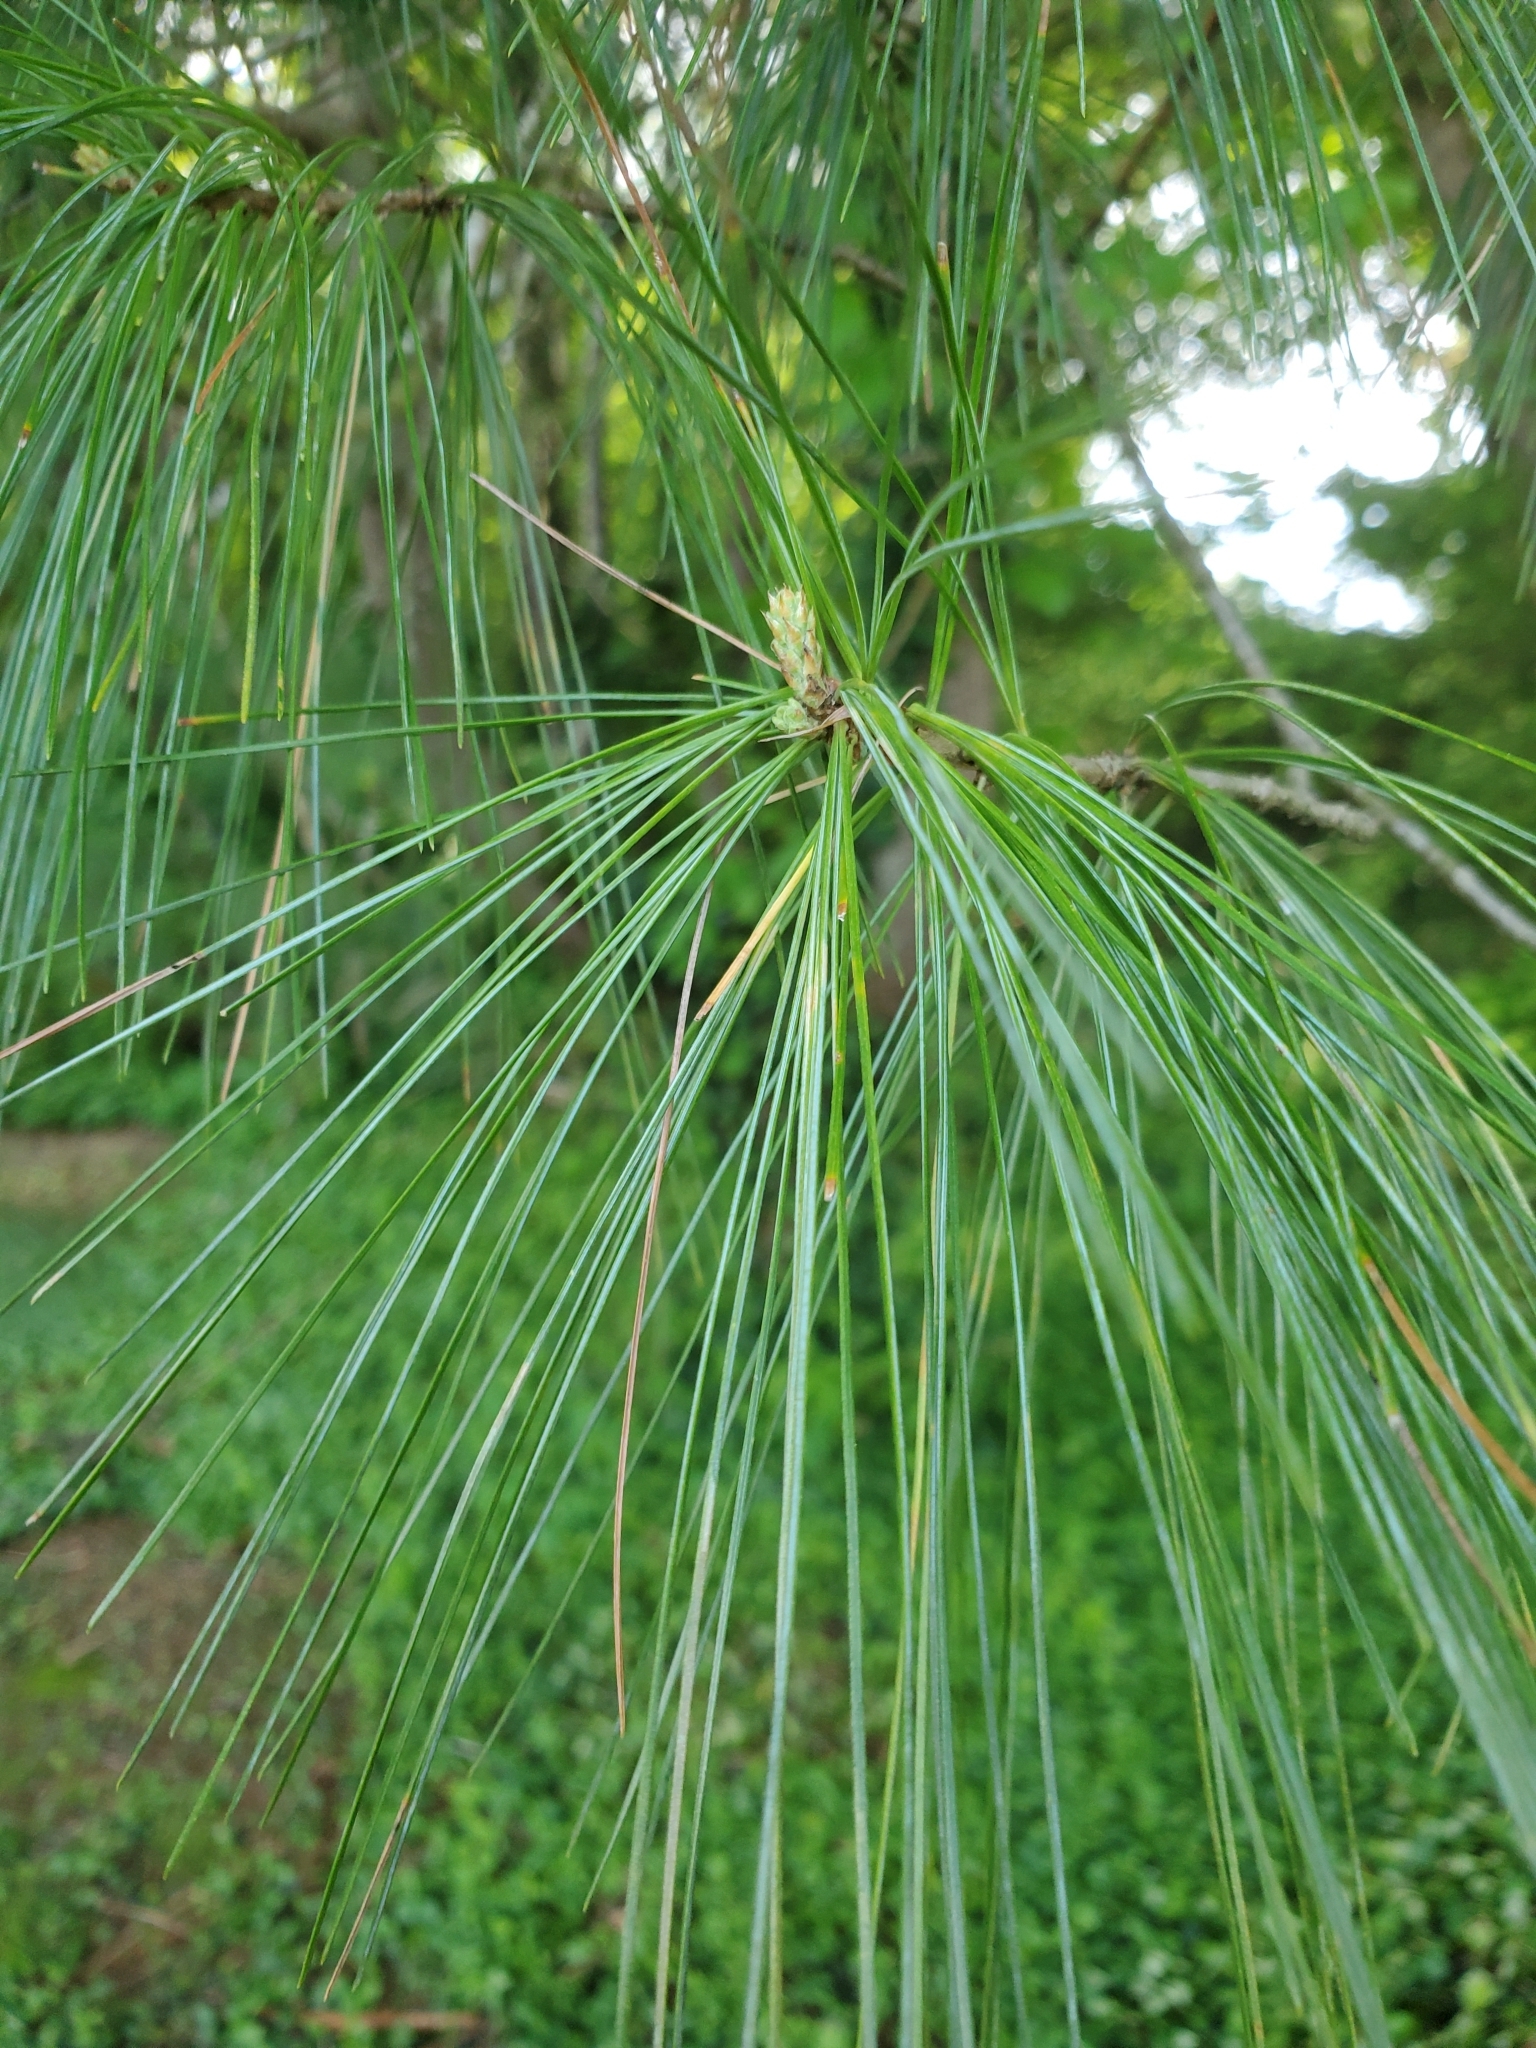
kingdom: Plantae
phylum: Tracheophyta
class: Pinopsida
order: Pinales
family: Pinaceae
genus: Pinus
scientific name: Pinus strobus
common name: Weymouth pine
